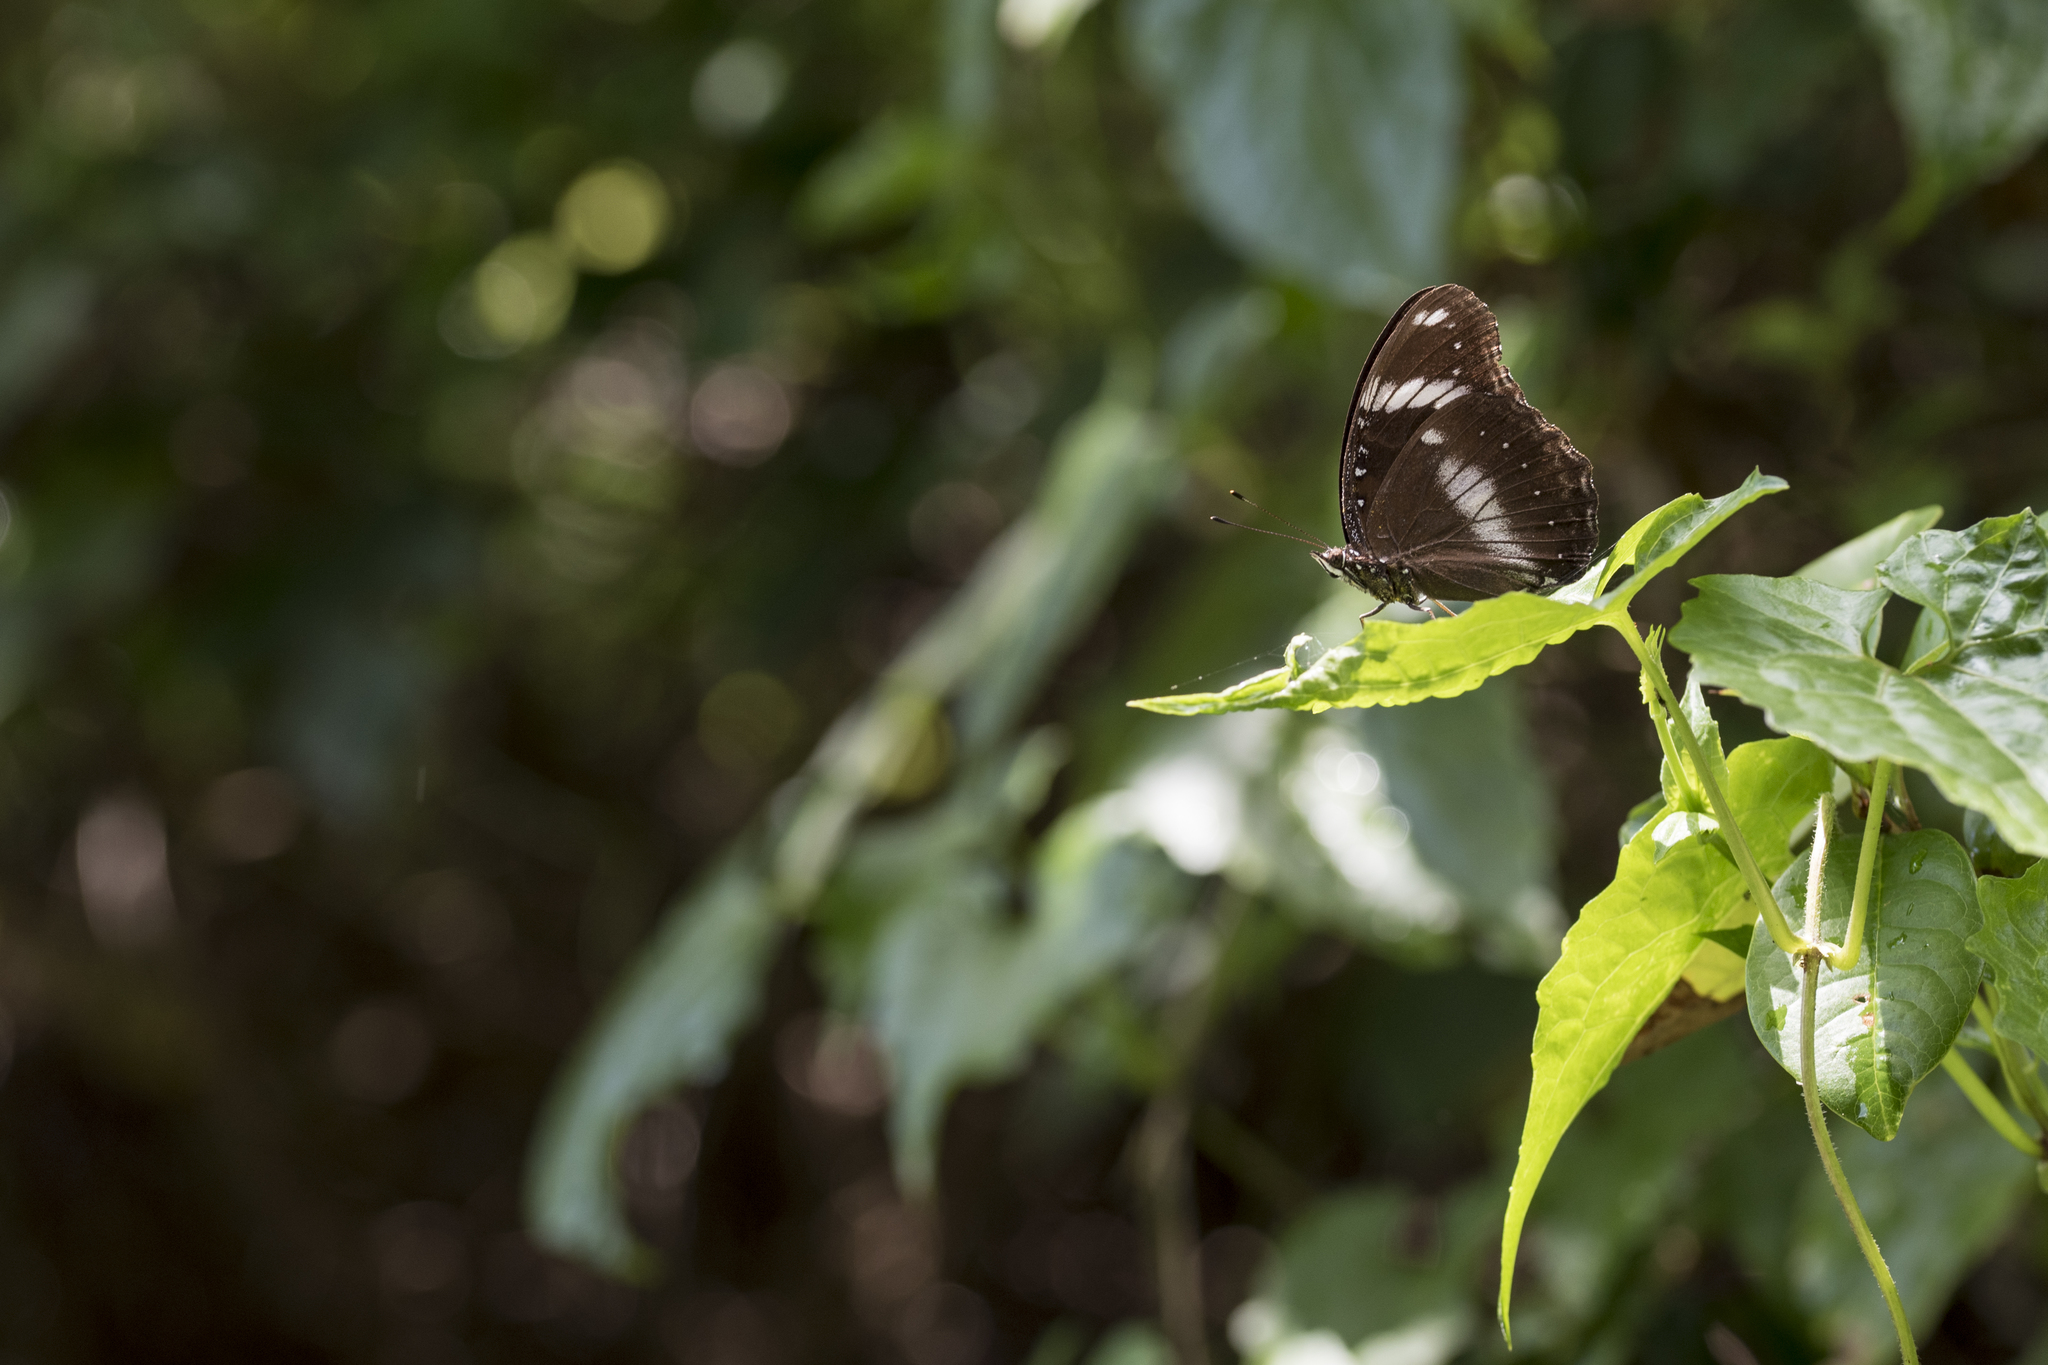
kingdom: Animalia
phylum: Arthropoda
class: Insecta
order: Lepidoptera
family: Nymphalidae
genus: Hypolimnas
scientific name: Hypolimnas bolina
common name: Great eggfly
